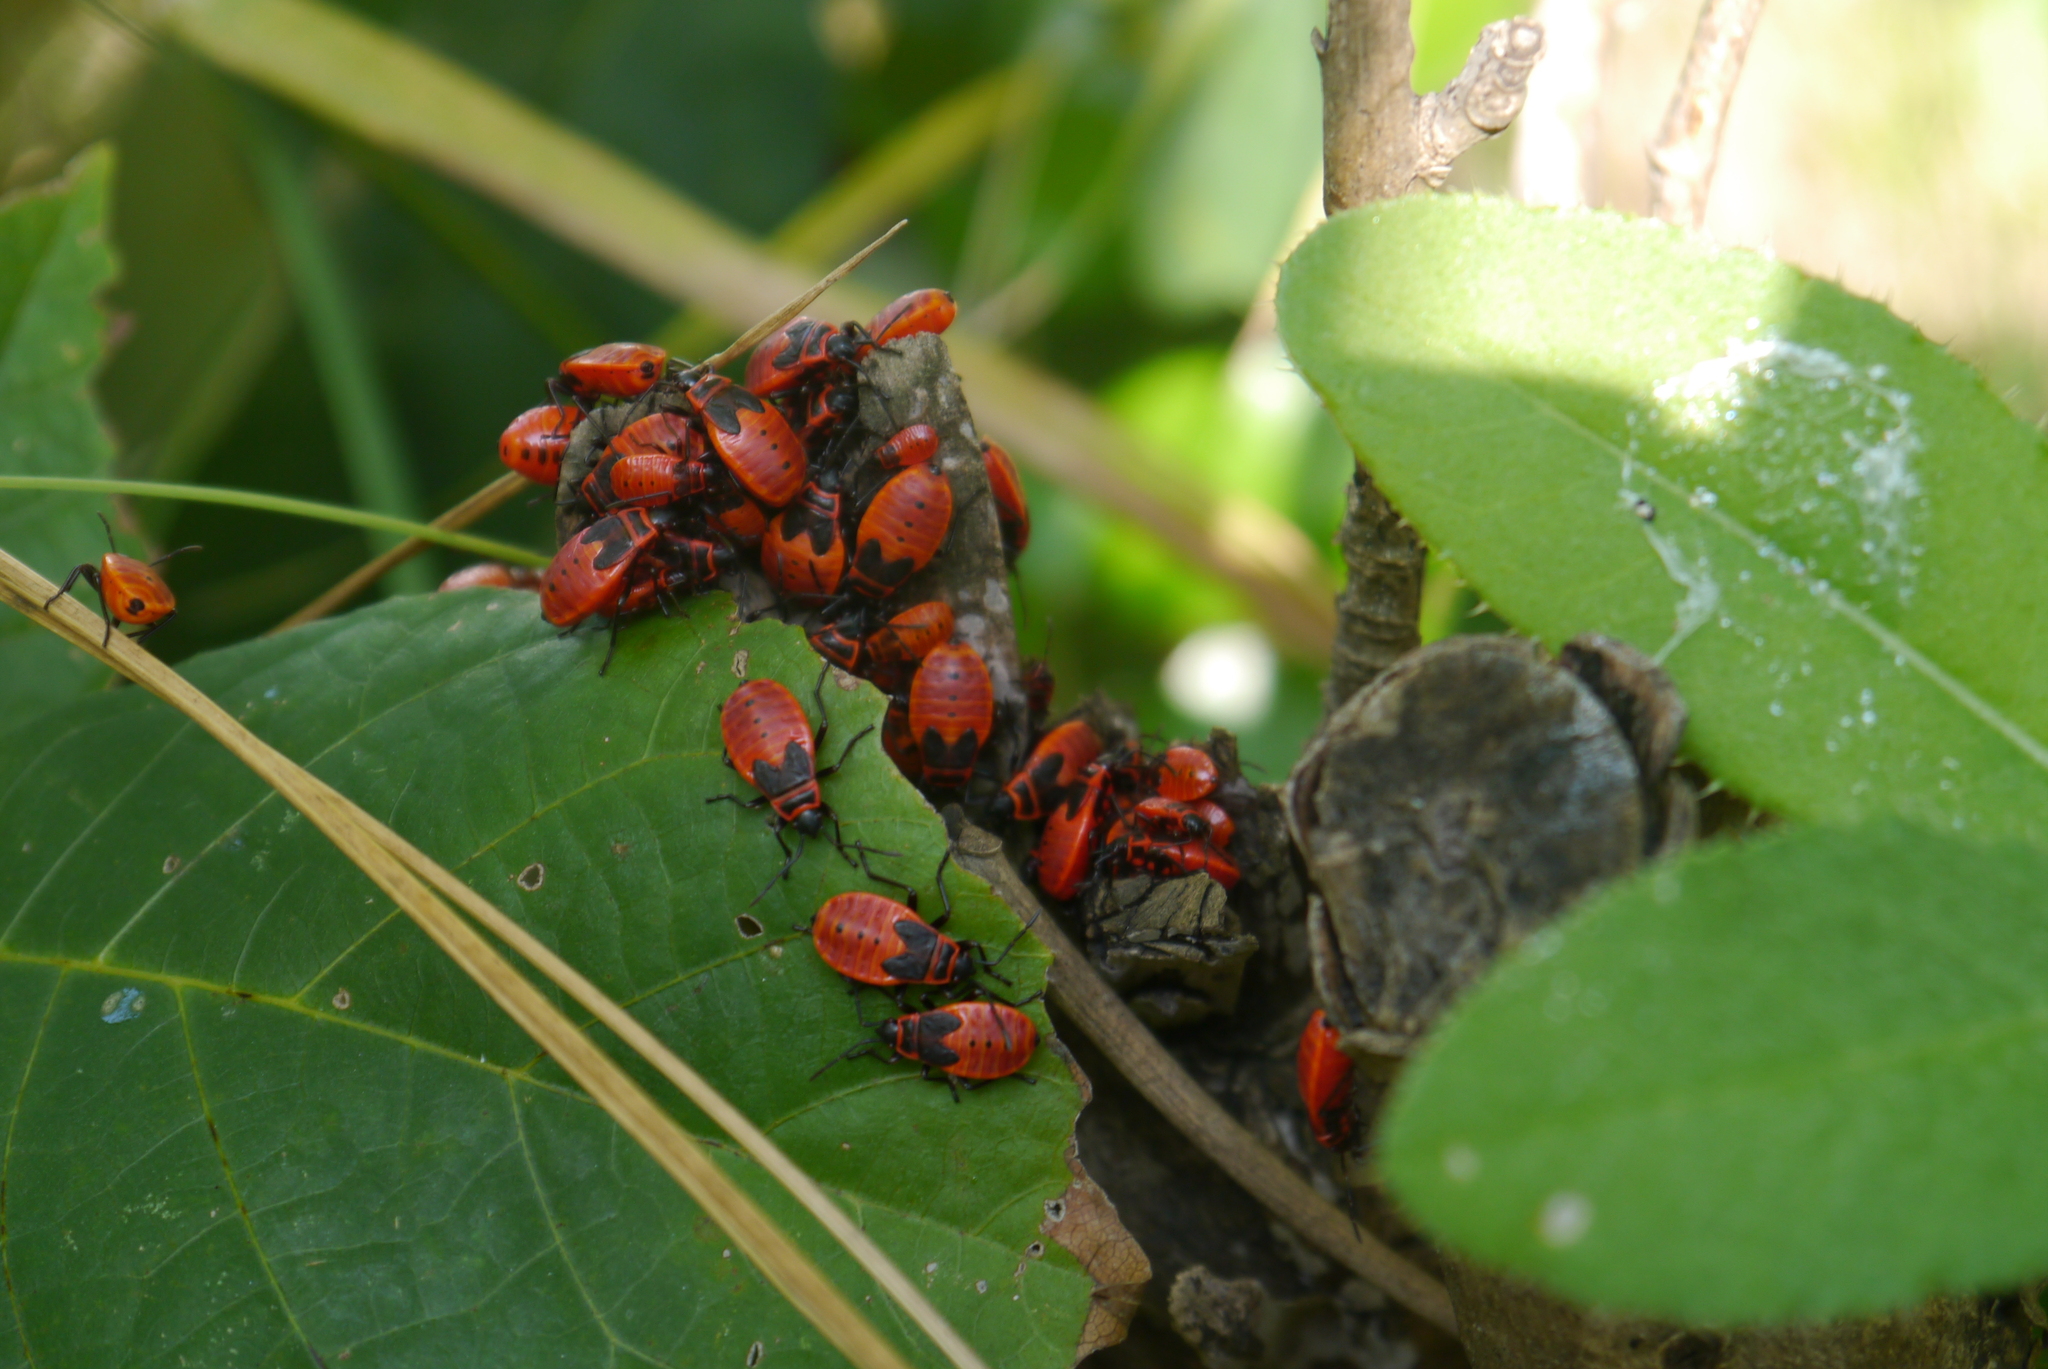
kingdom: Animalia
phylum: Arthropoda
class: Insecta
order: Hemiptera
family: Pyrrhocoridae
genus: Pyrrhocoris
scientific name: Pyrrhocoris apterus
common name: Firebug
